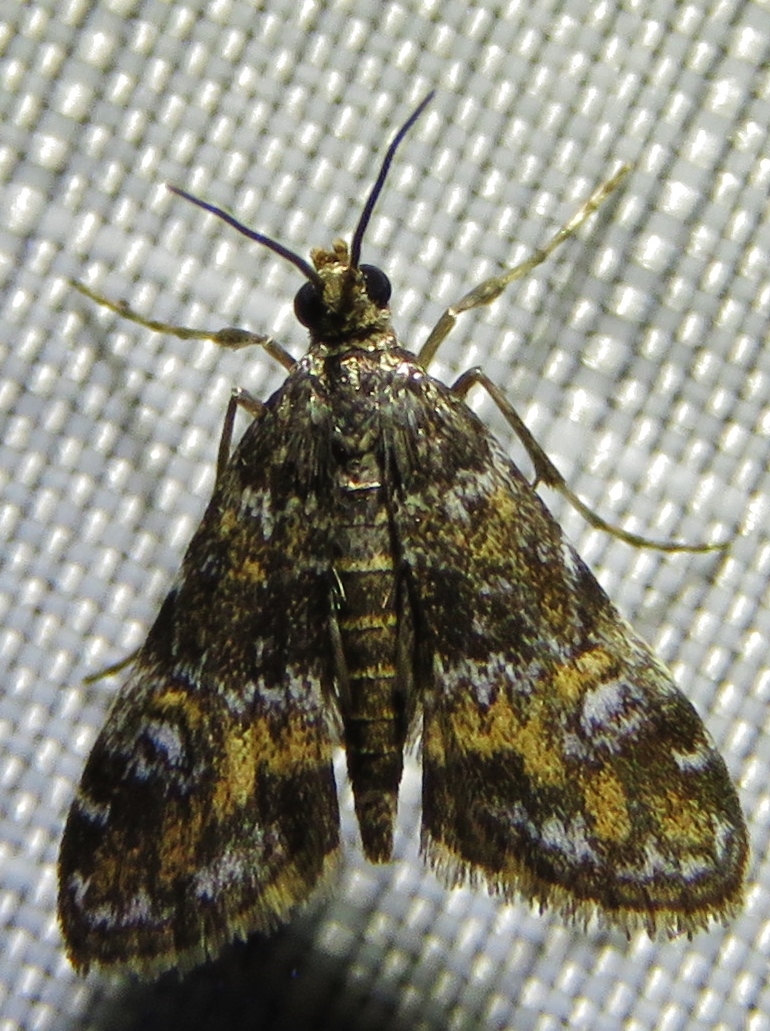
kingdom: Animalia
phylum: Arthropoda
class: Insecta
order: Lepidoptera
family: Crambidae
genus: Elophila
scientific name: Elophila obliteralis
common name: Waterlily leafcutter moth
